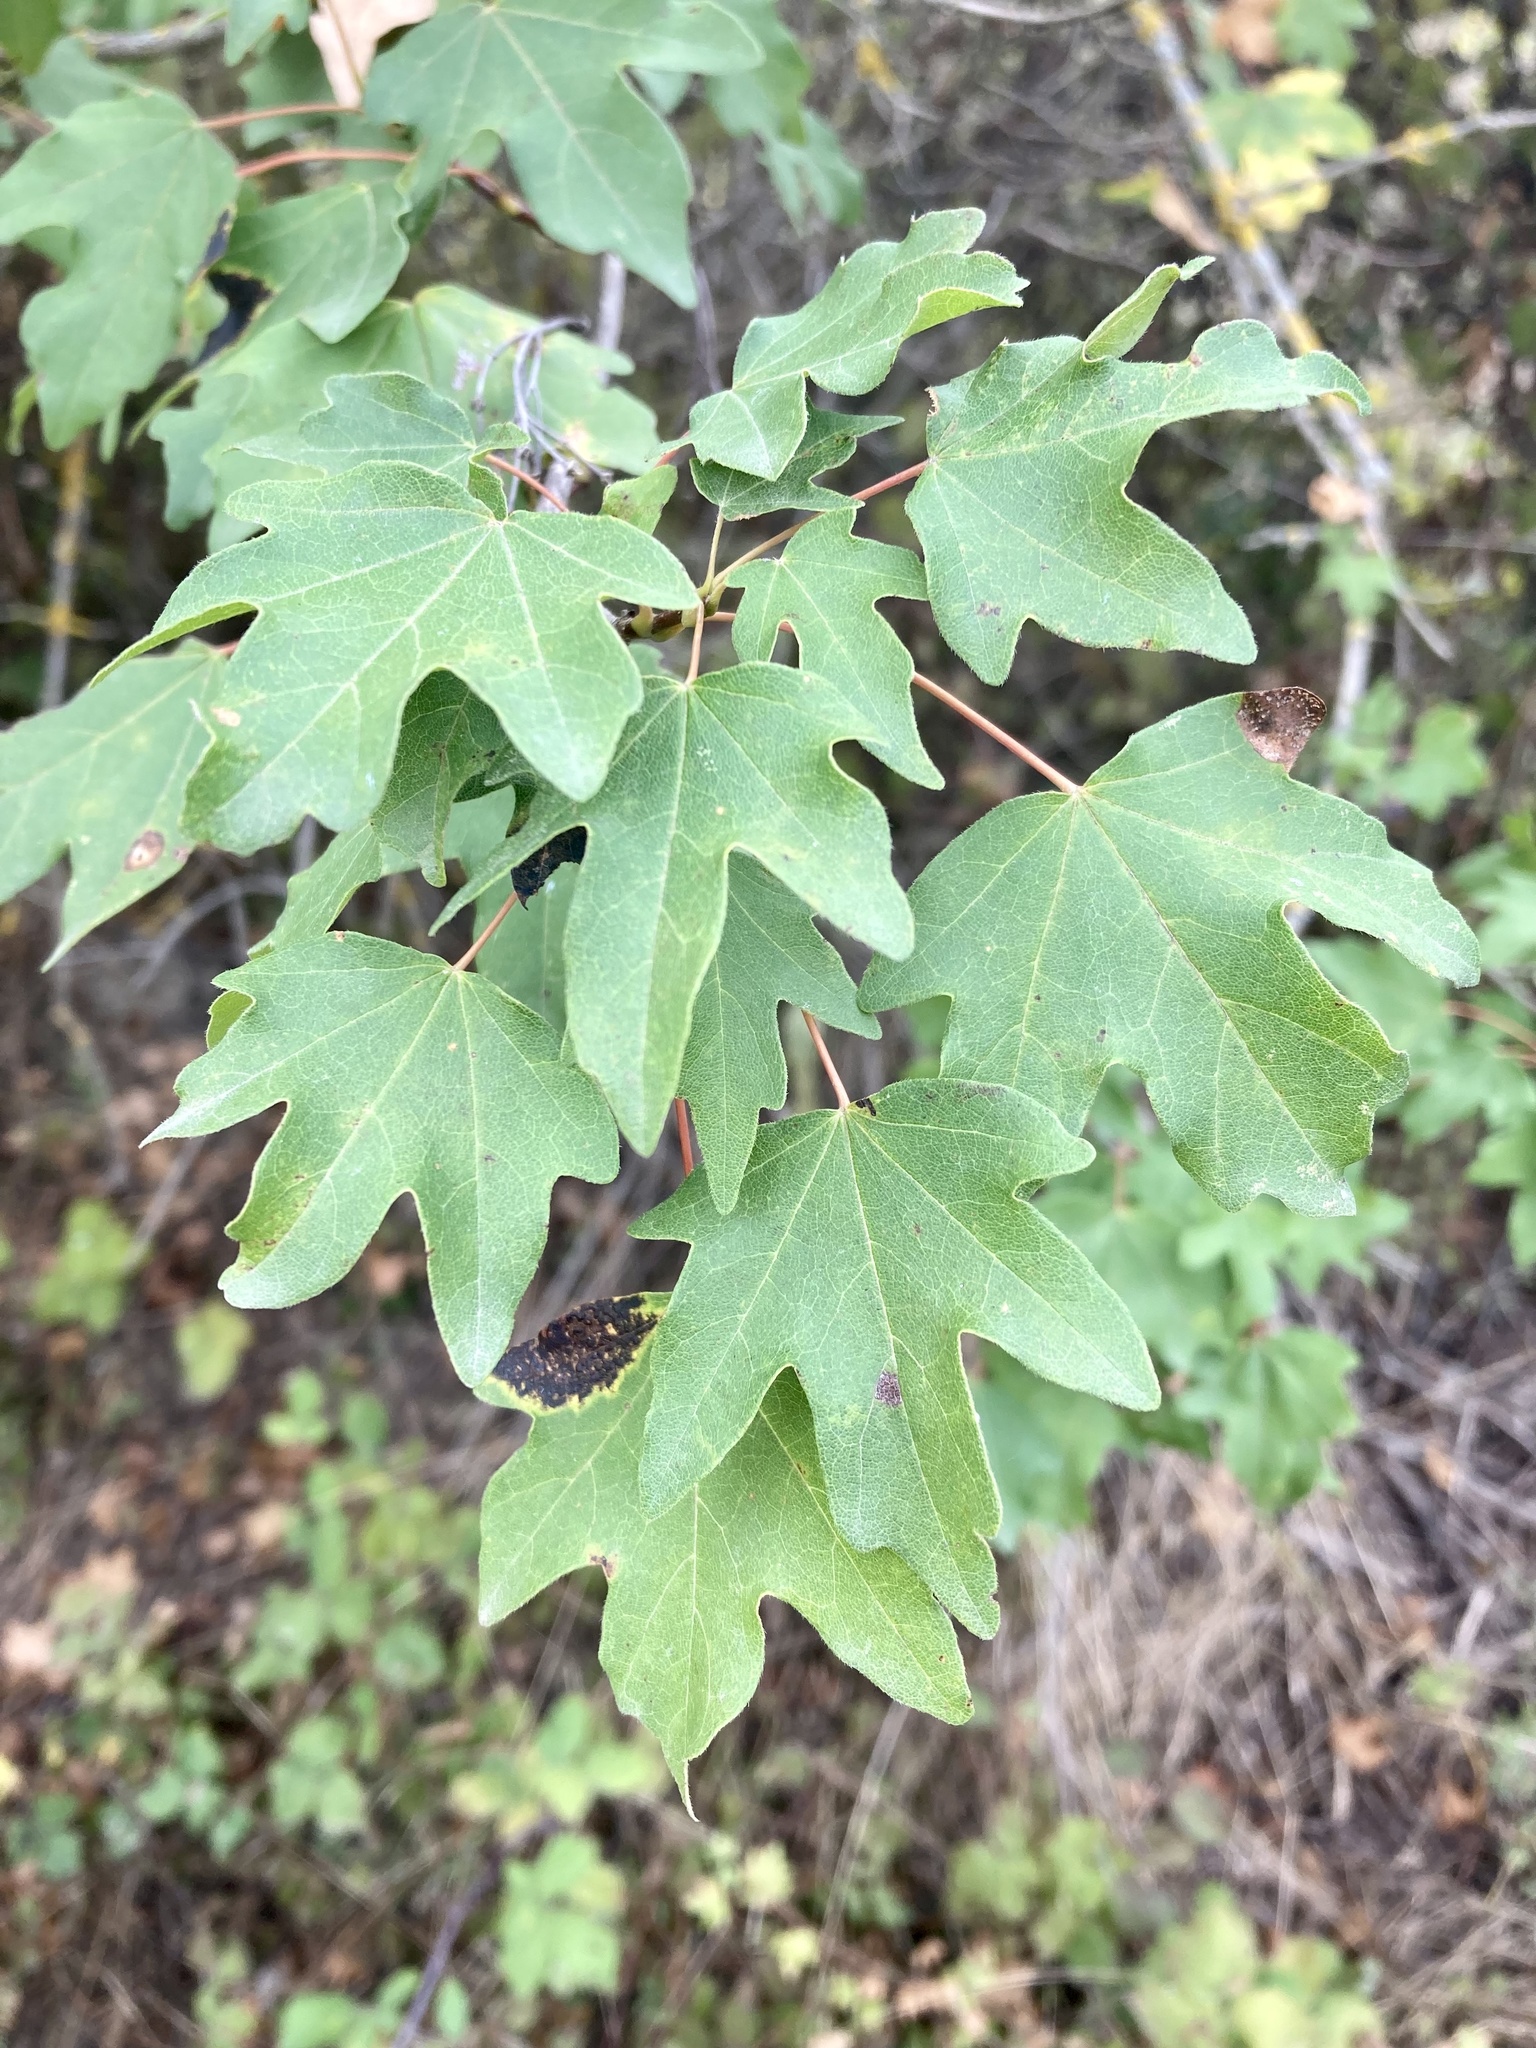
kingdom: Plantae
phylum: Tracheophyta
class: Magnoliopsida
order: Sapindales
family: Sapindaceae
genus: Acer
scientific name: Acer campestre
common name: Field maple
